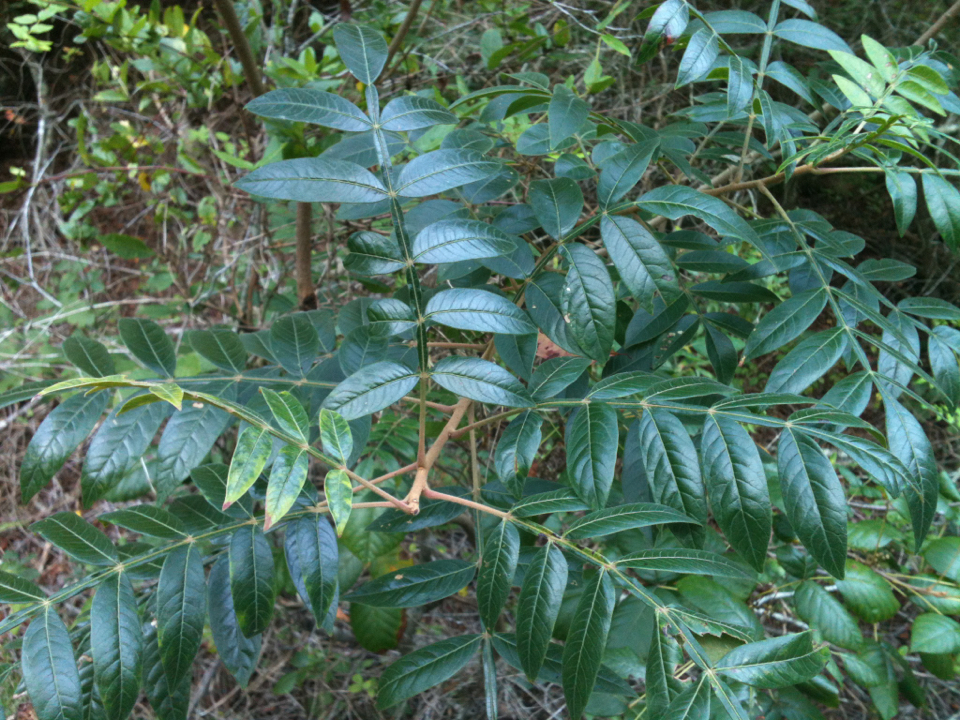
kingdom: Plantae
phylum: Tracheophyta
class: Magnoliopsida
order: Sapindales
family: Anacardiaceae
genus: Rhus
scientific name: Rhus copallina
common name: Shining sumac
